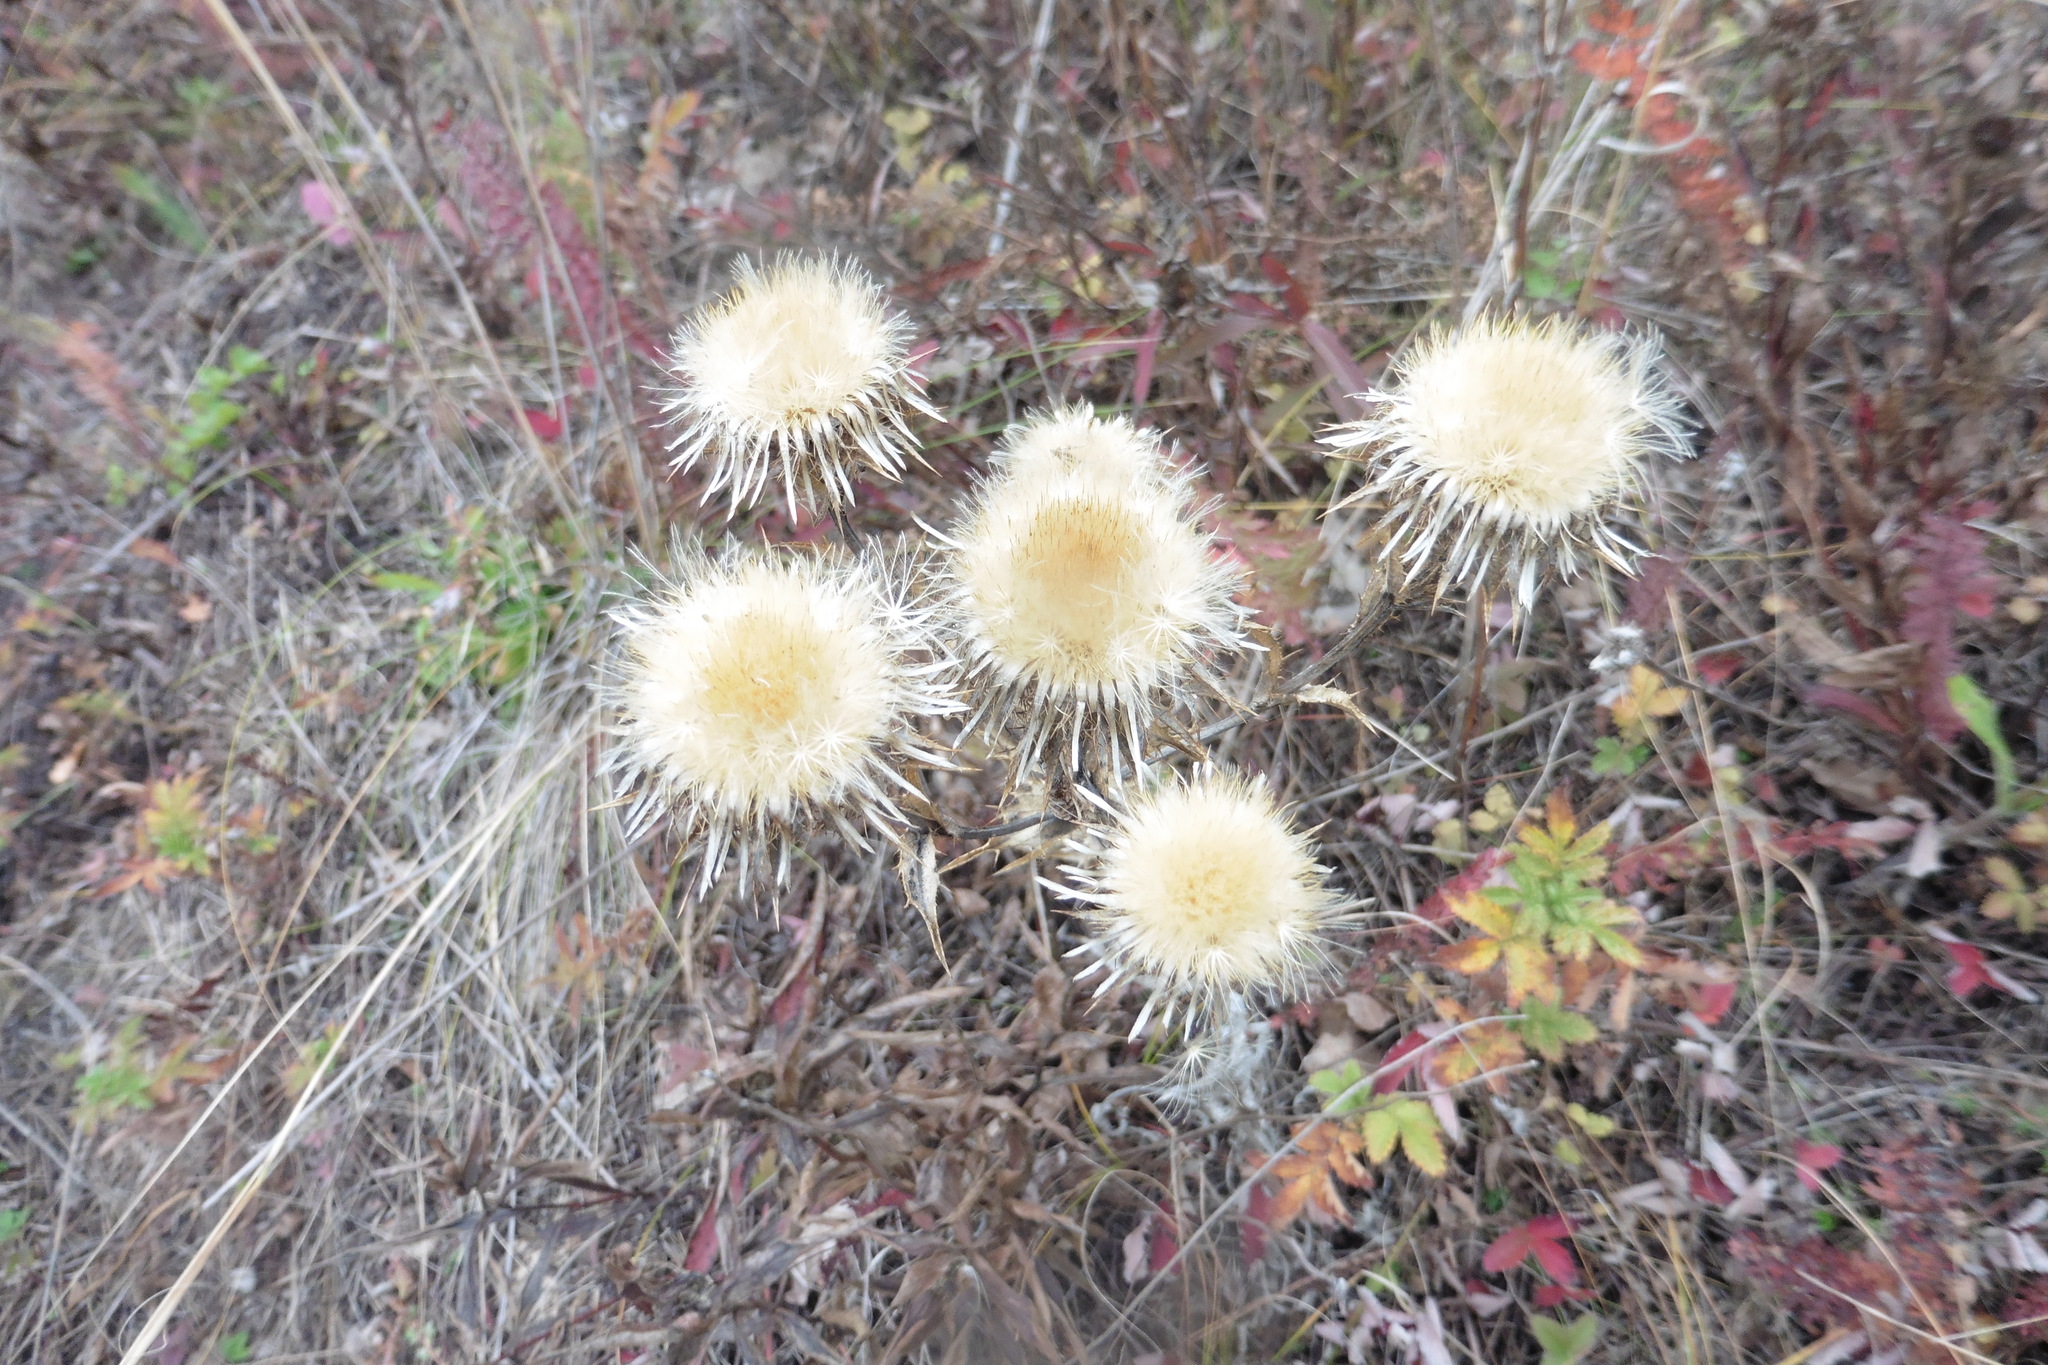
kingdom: Plantae
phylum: Tracheophyta
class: Magnoliopsida
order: Asterales
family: Asteraceae
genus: Carlina
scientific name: Carlina biebersteinii
